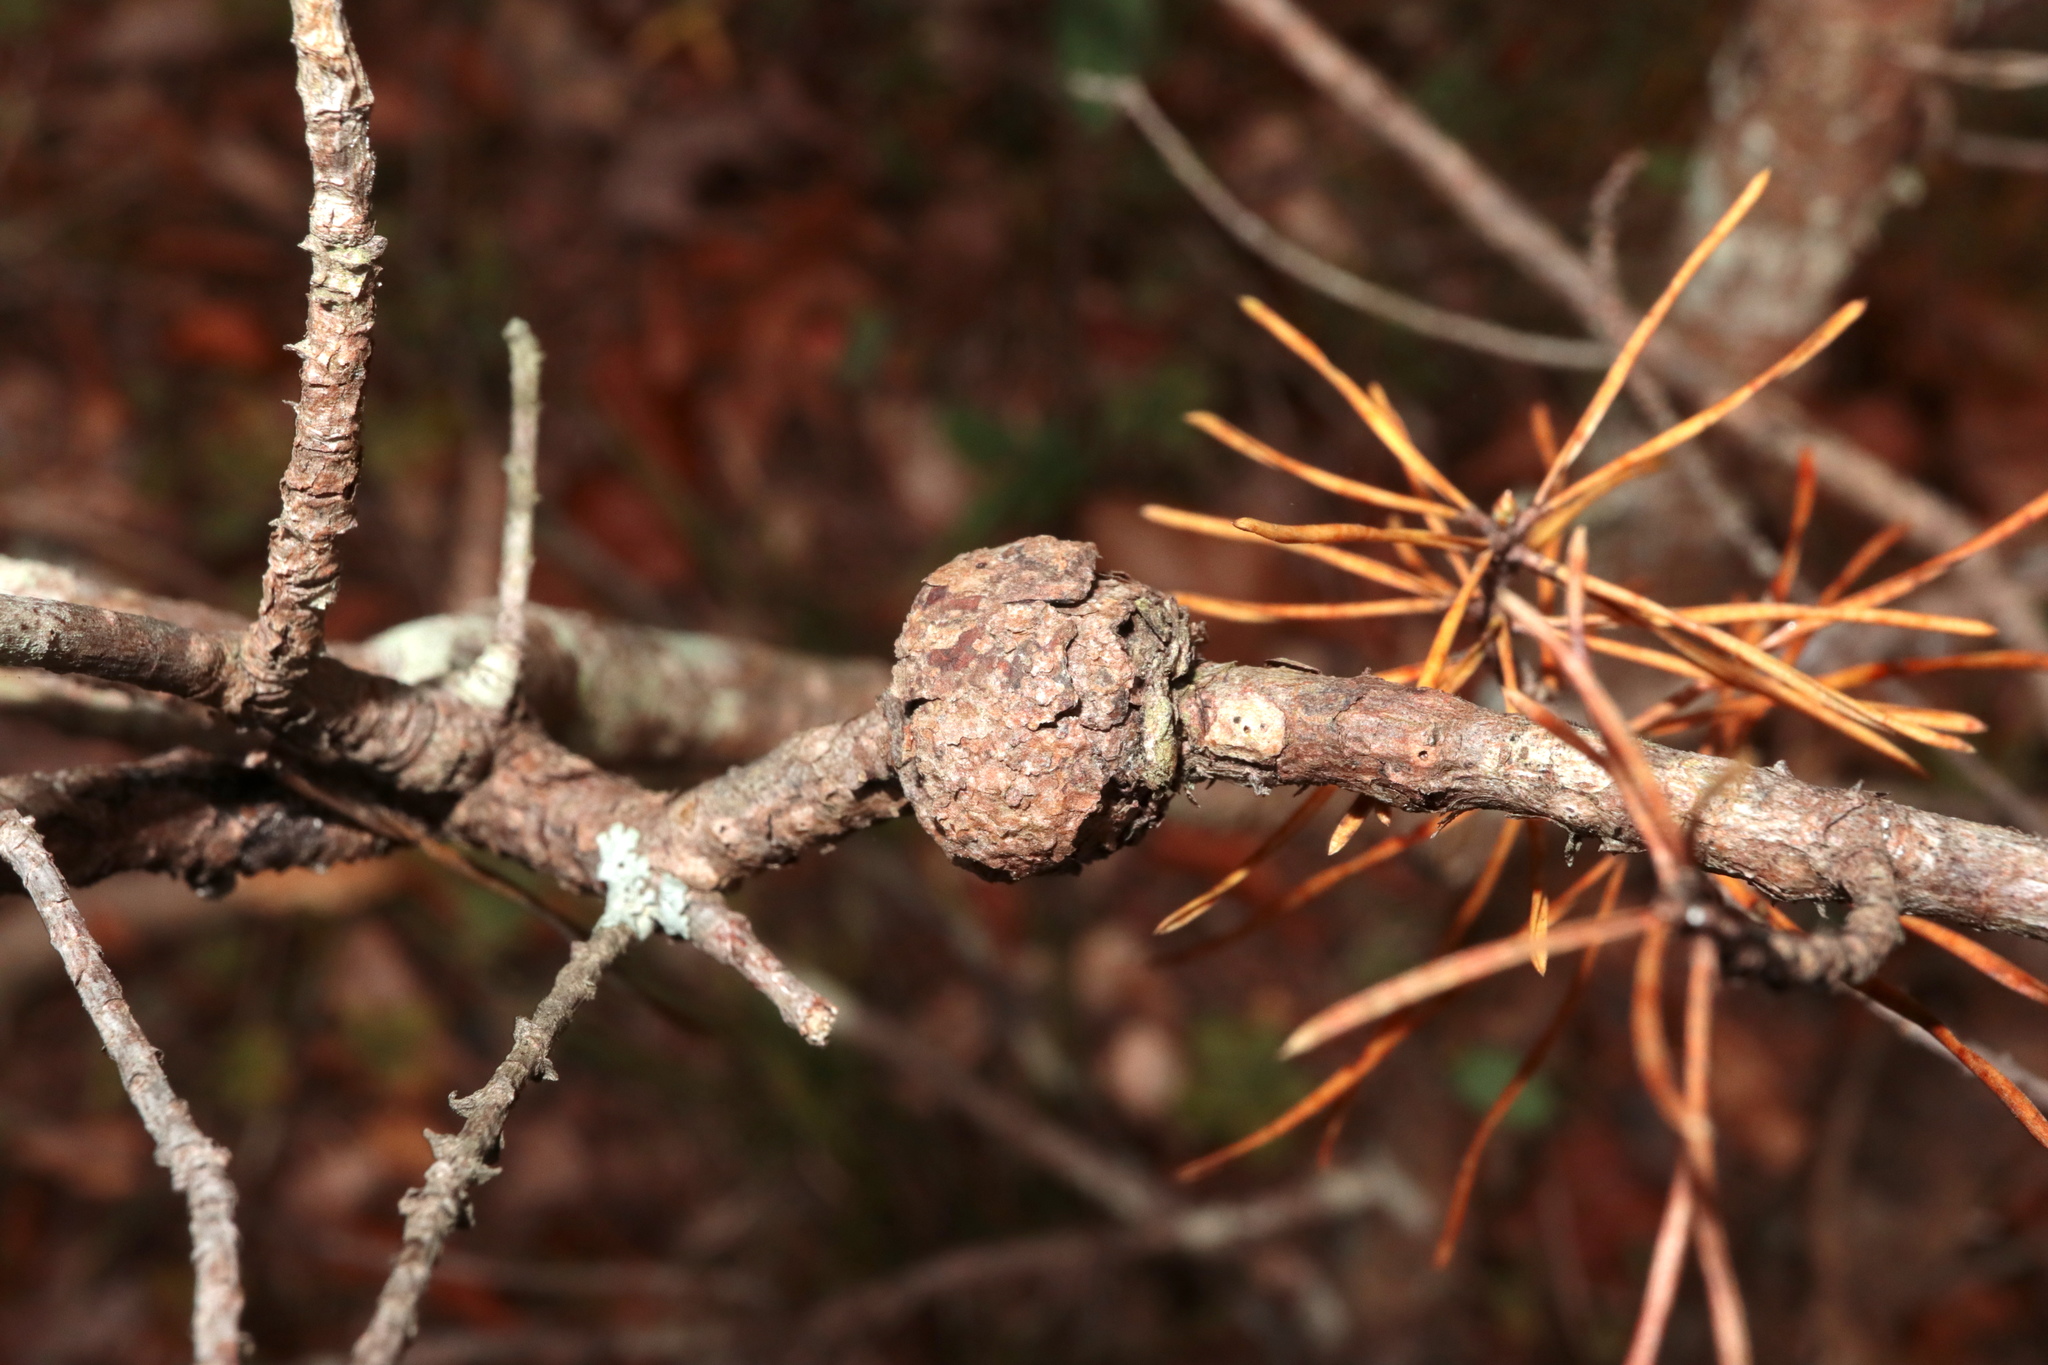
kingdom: Fungi
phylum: Basidiomycota
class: Pucciniomycetes
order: Pucciniales
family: Cronartiaceae
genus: Cronartium
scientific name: Cronartium quercuum
